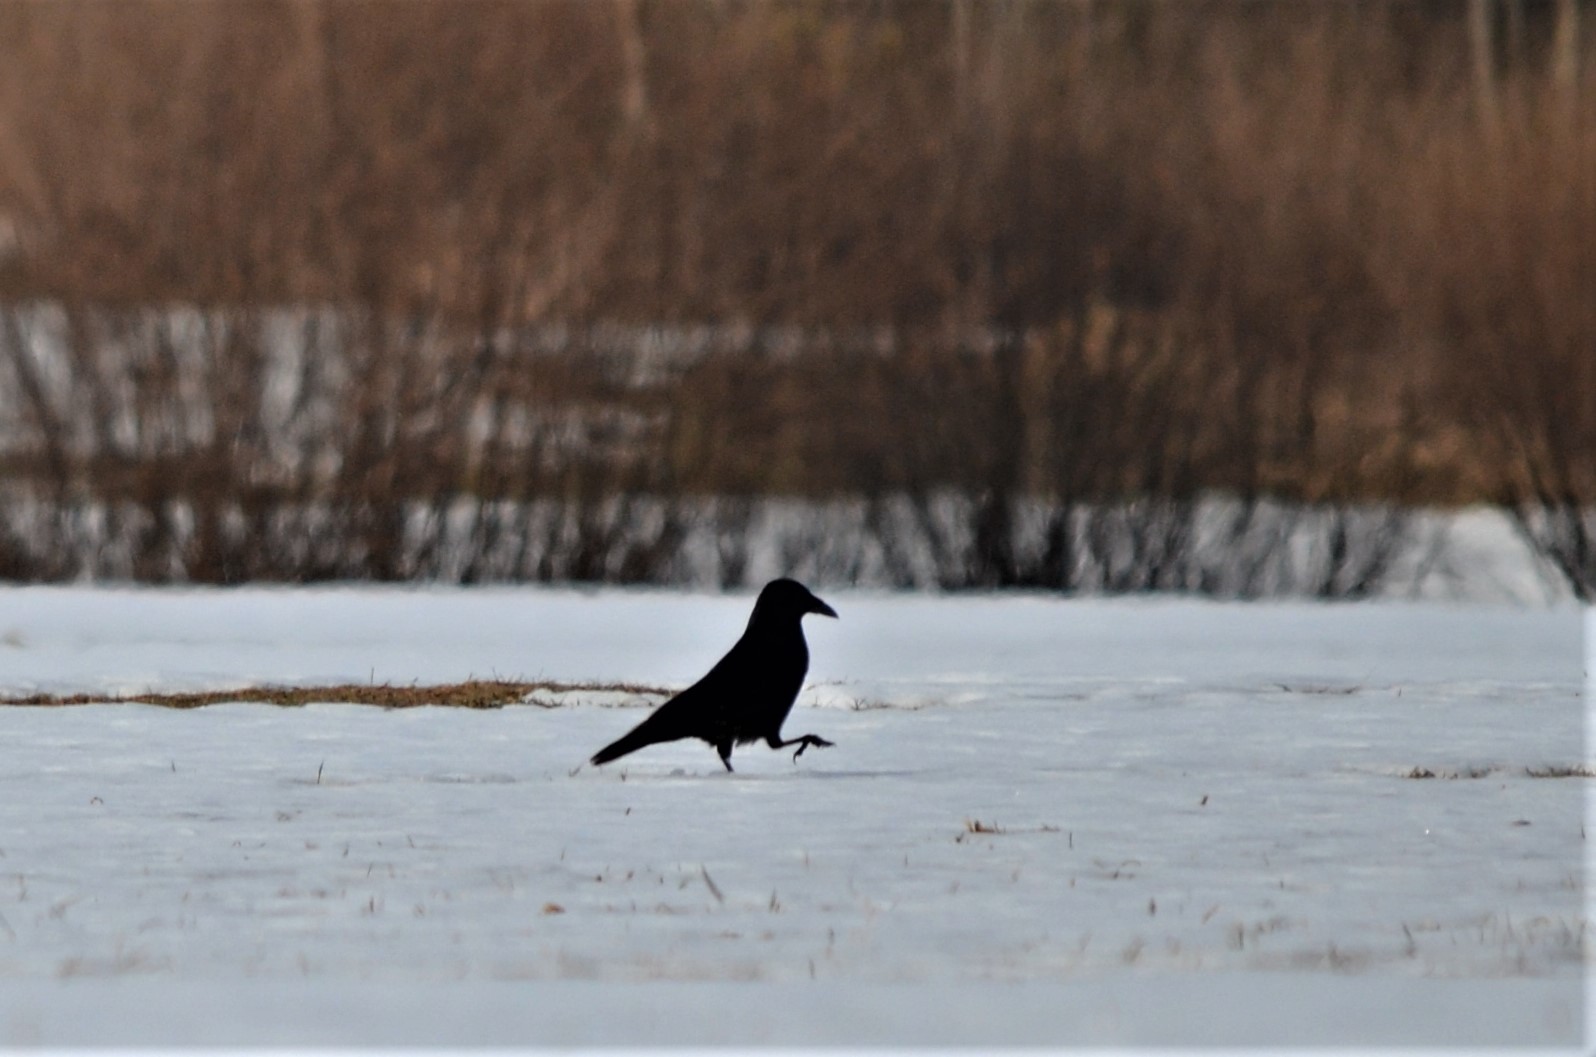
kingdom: Animalia
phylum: Chordata
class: Aves
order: Passeriformes
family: Corvidae
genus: Corvus
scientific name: Corvus corone
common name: Carrion crow
